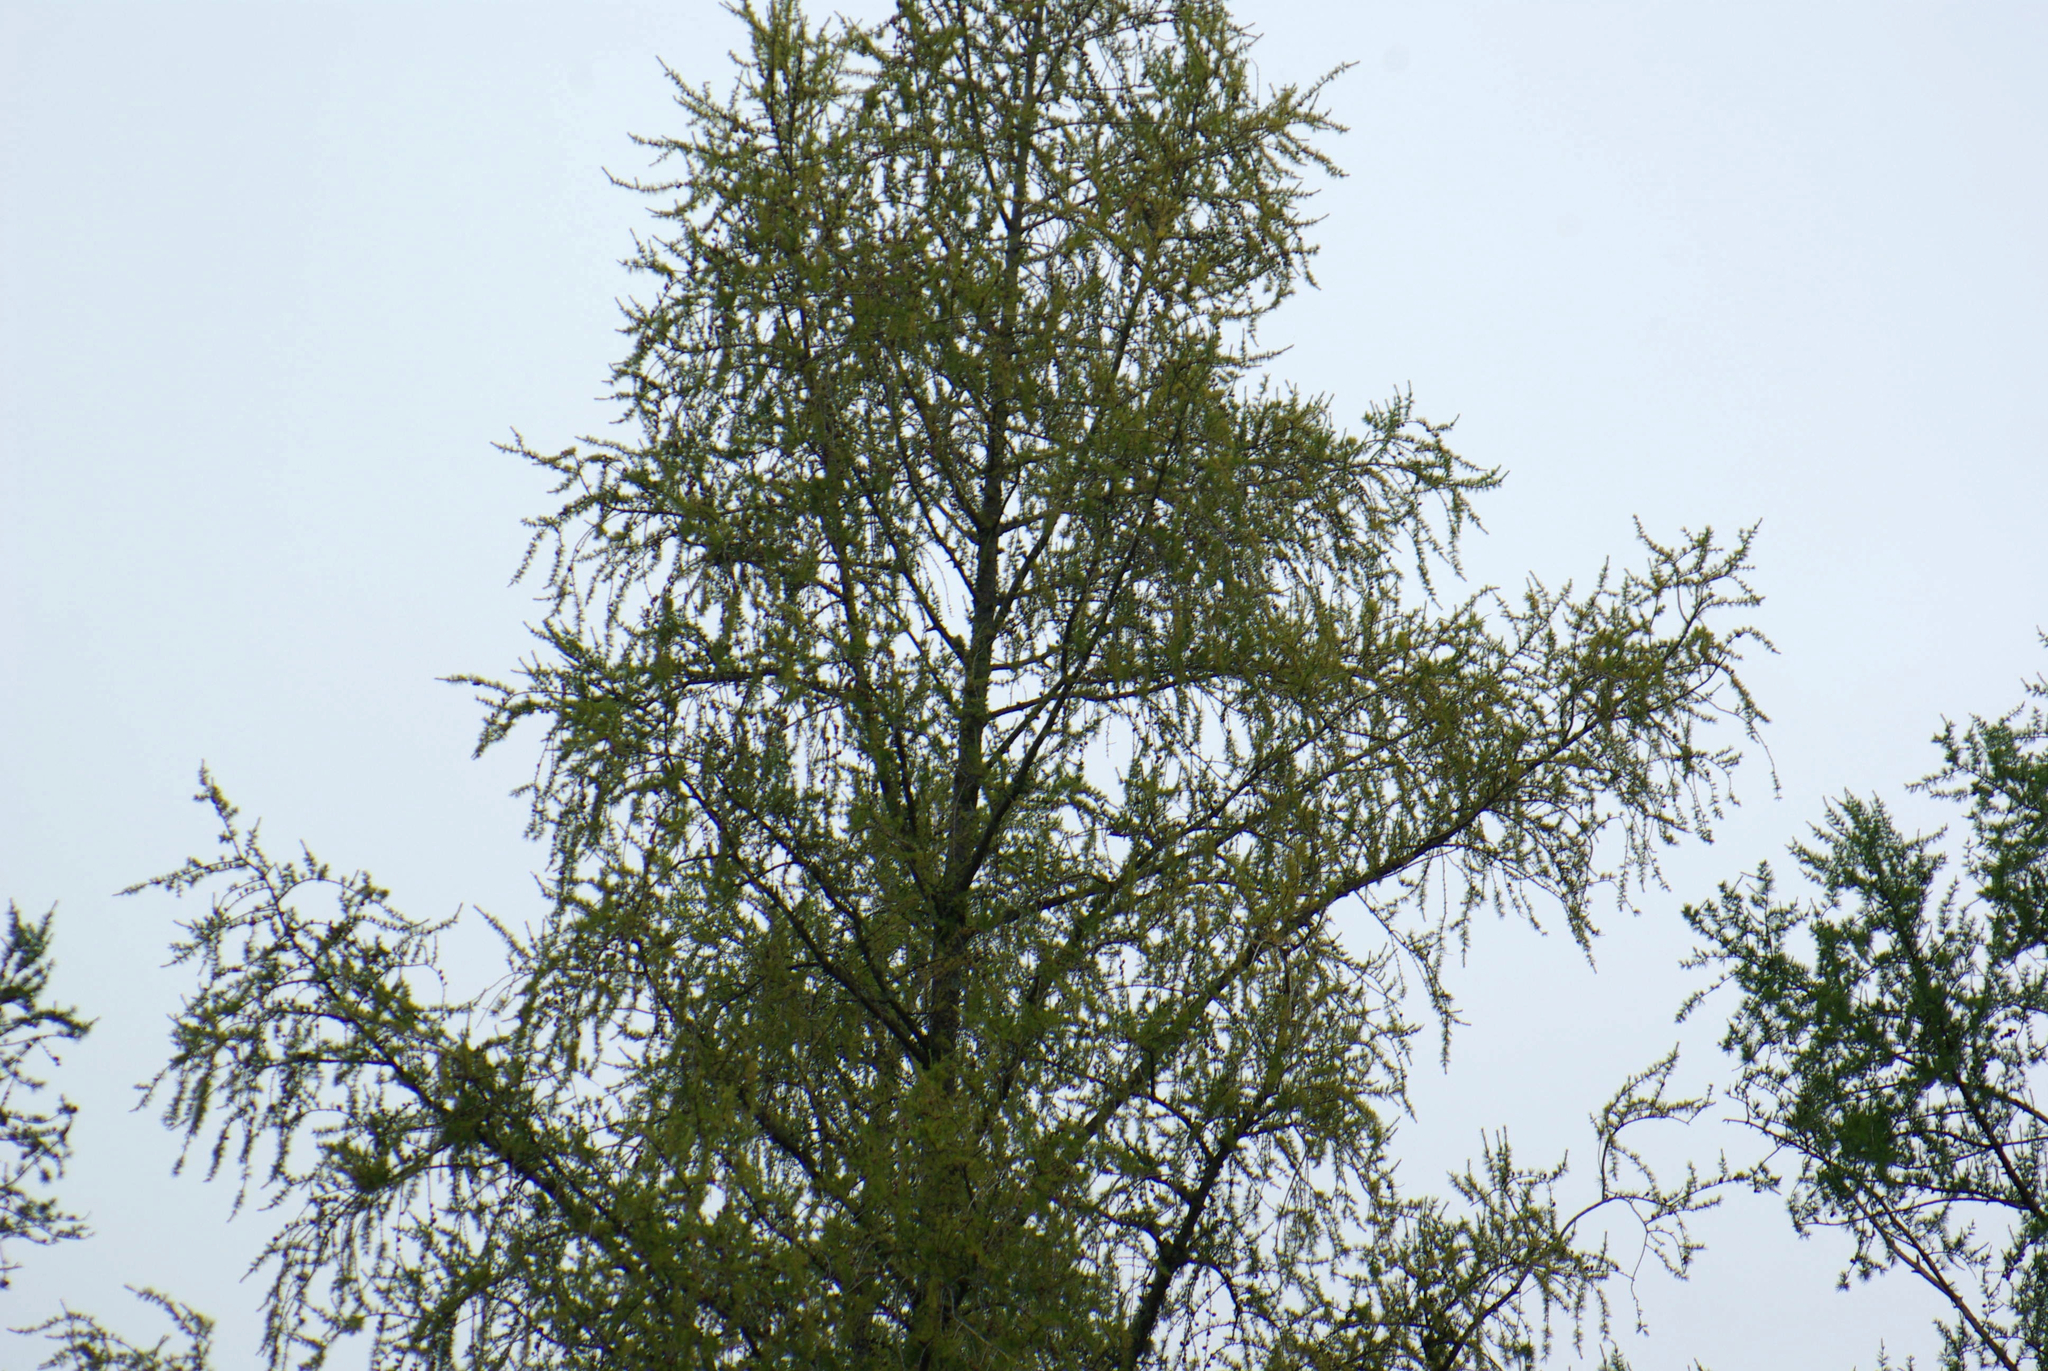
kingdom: Plantae
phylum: Tracheophyta
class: Pinopsida
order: Pinales
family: Pinaceae
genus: Larix
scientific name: Larix laricina
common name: American larch
